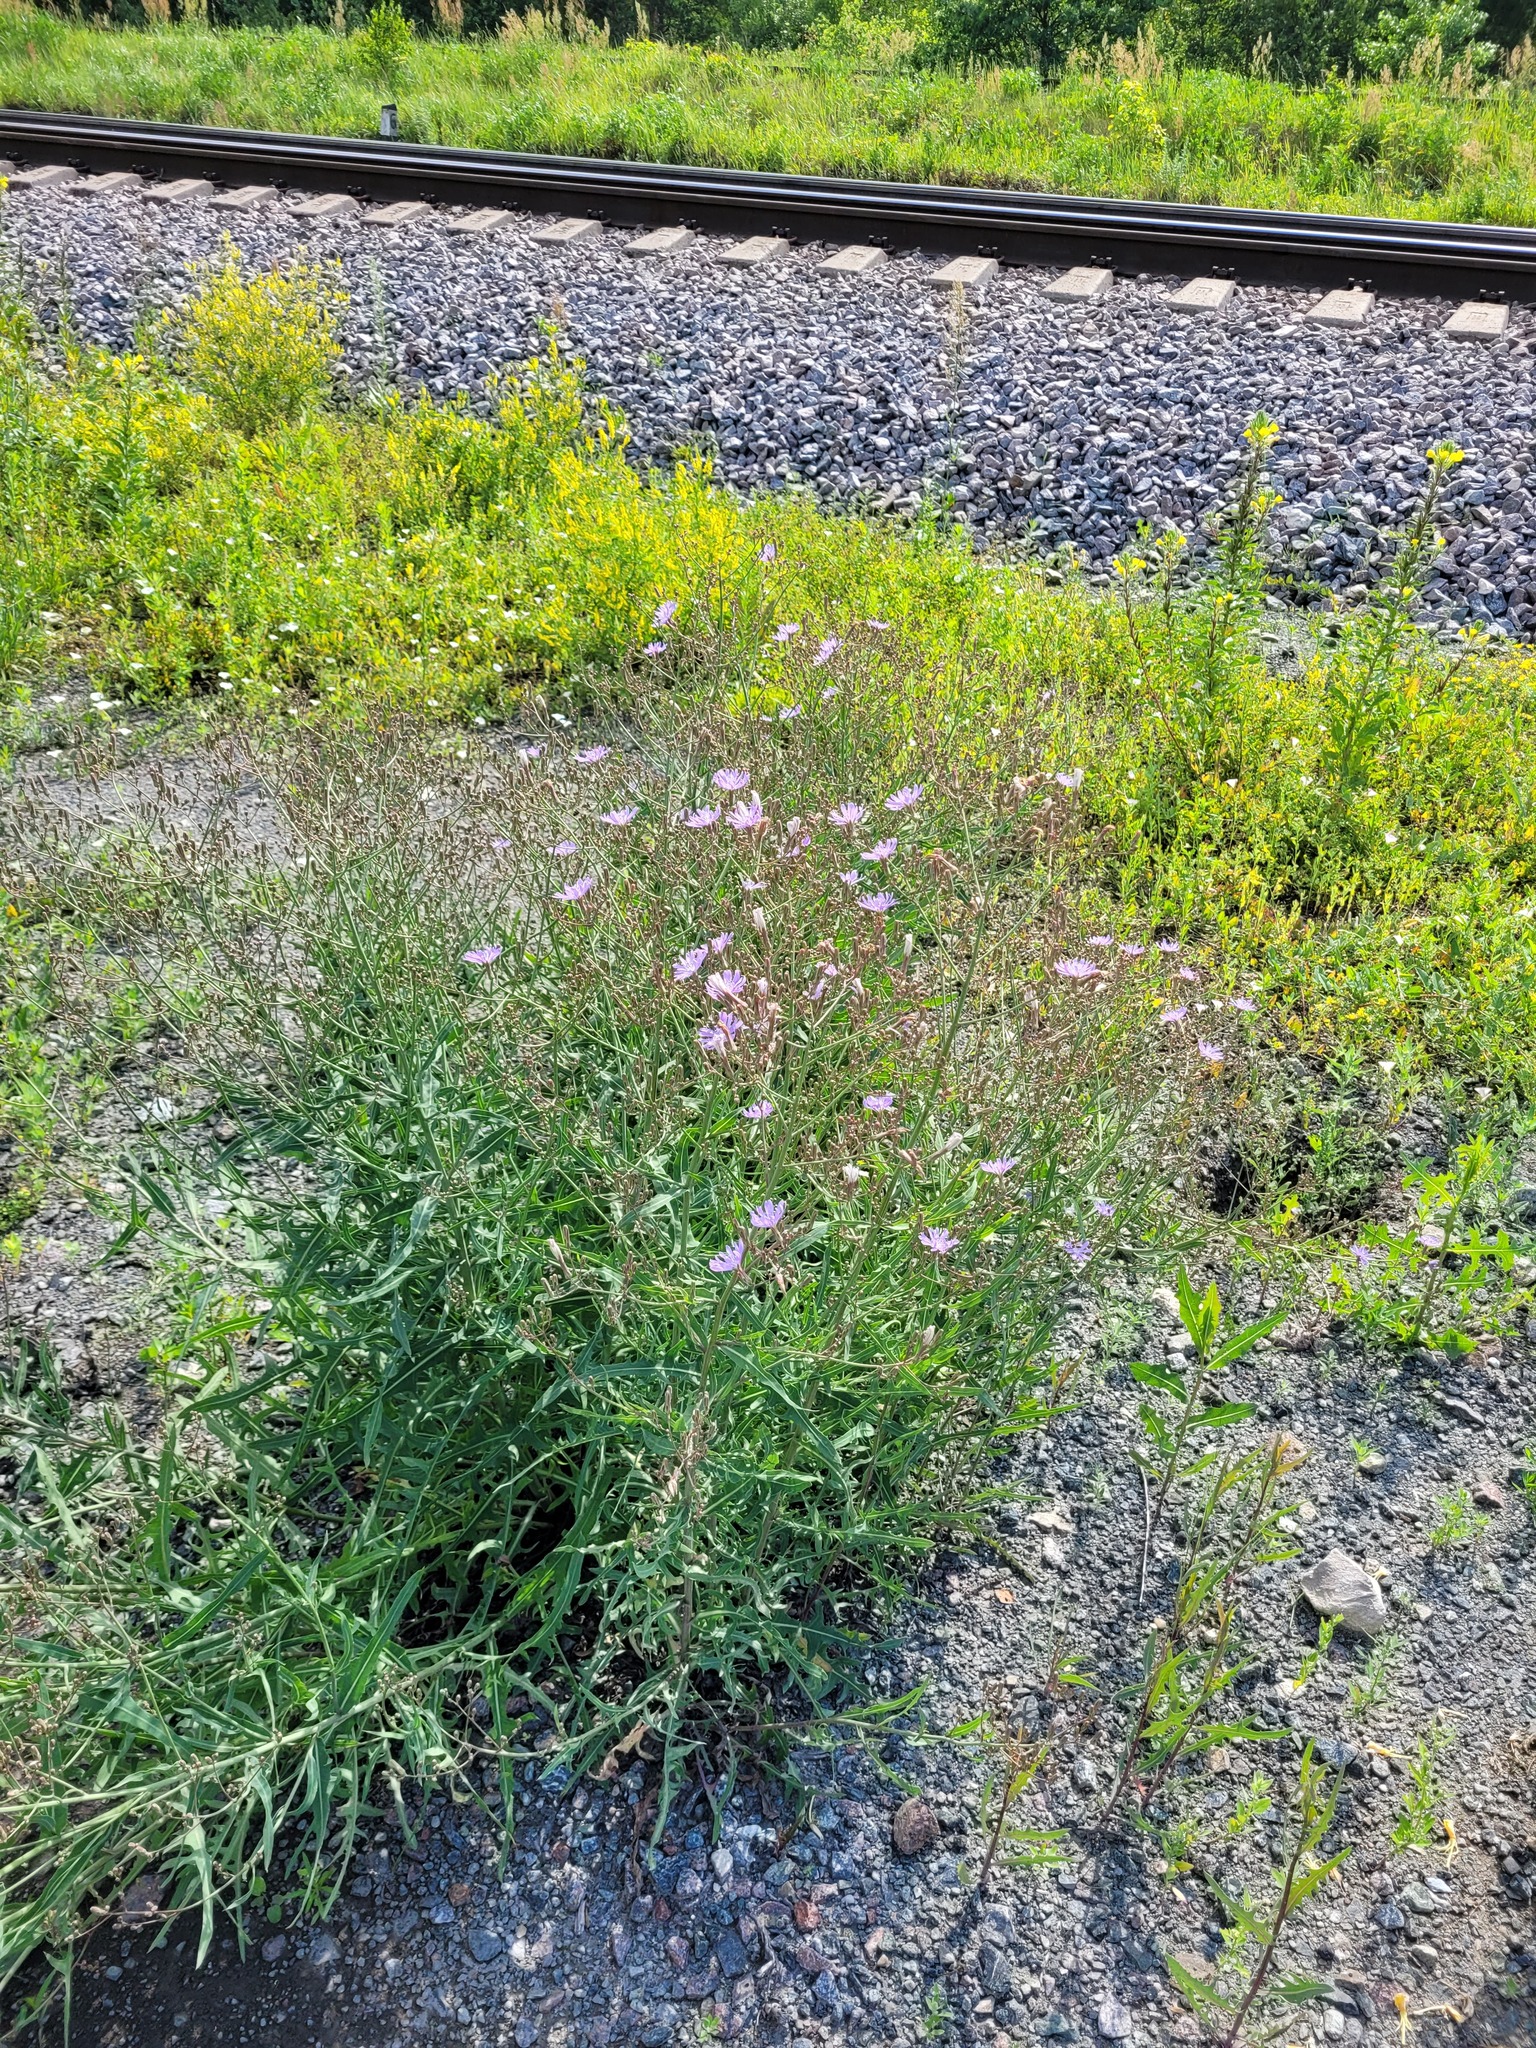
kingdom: Plantae
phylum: Tracheophyta
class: Magnoliopsida
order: Asterales
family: Asteraceae
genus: Lactuca
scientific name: Lactuca tatarica
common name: Blue lettuce
